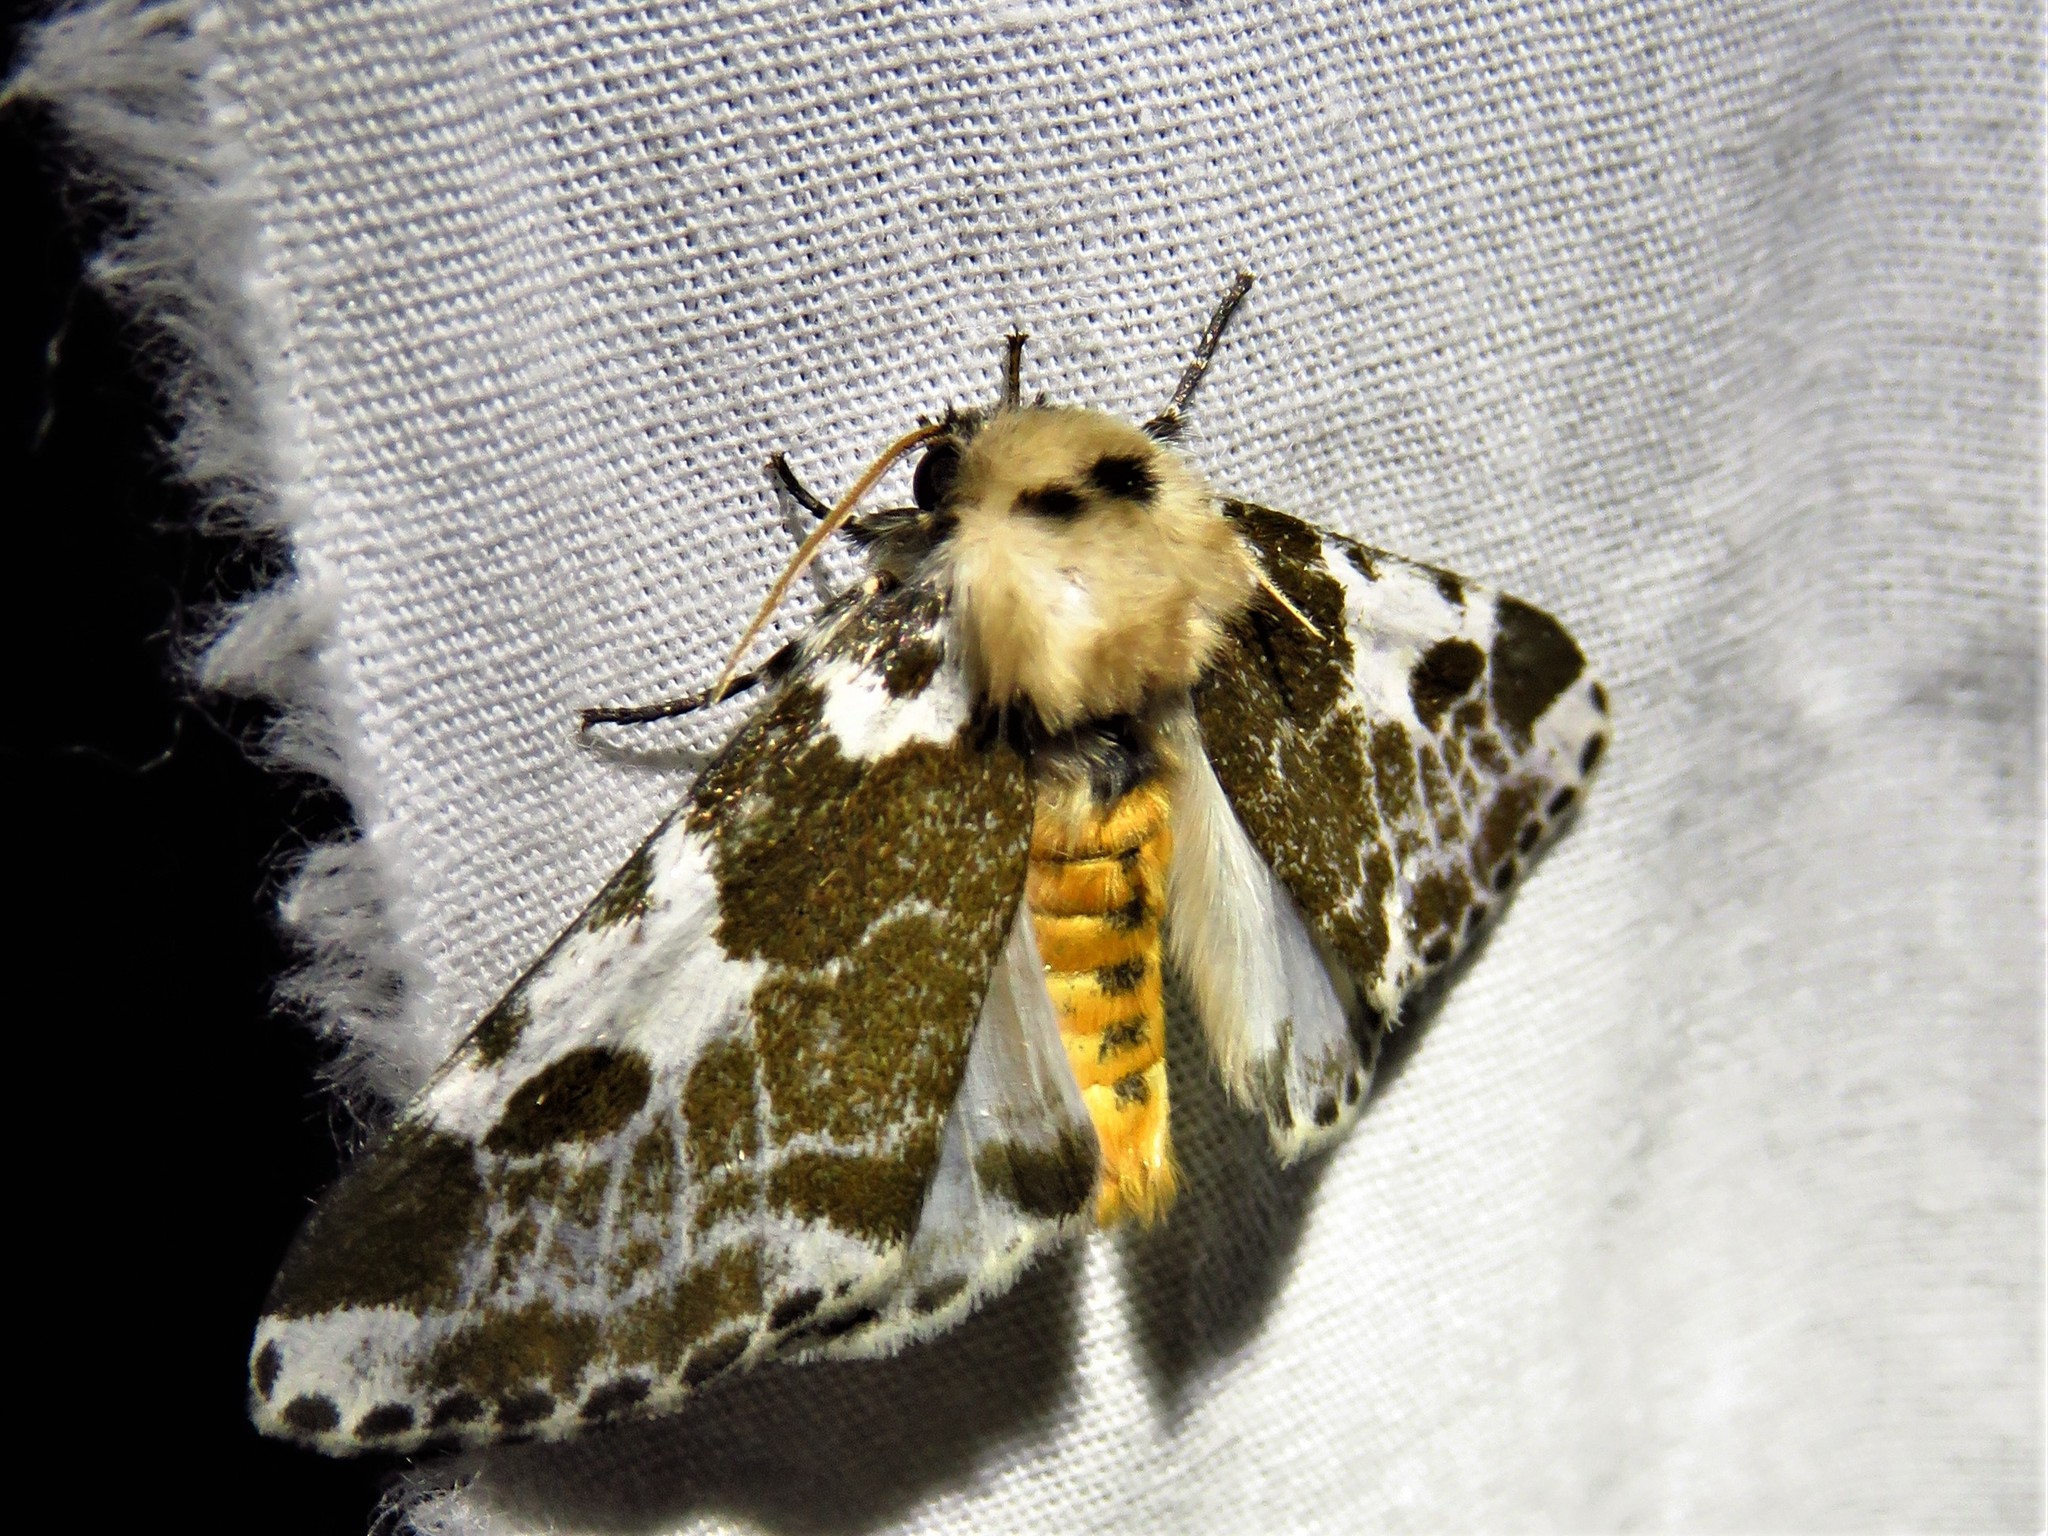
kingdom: Animalia
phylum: Arthropoda
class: Insecta
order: Lepidoptera
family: Erebidae
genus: Sciatta
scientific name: Sciatta inconcisa
